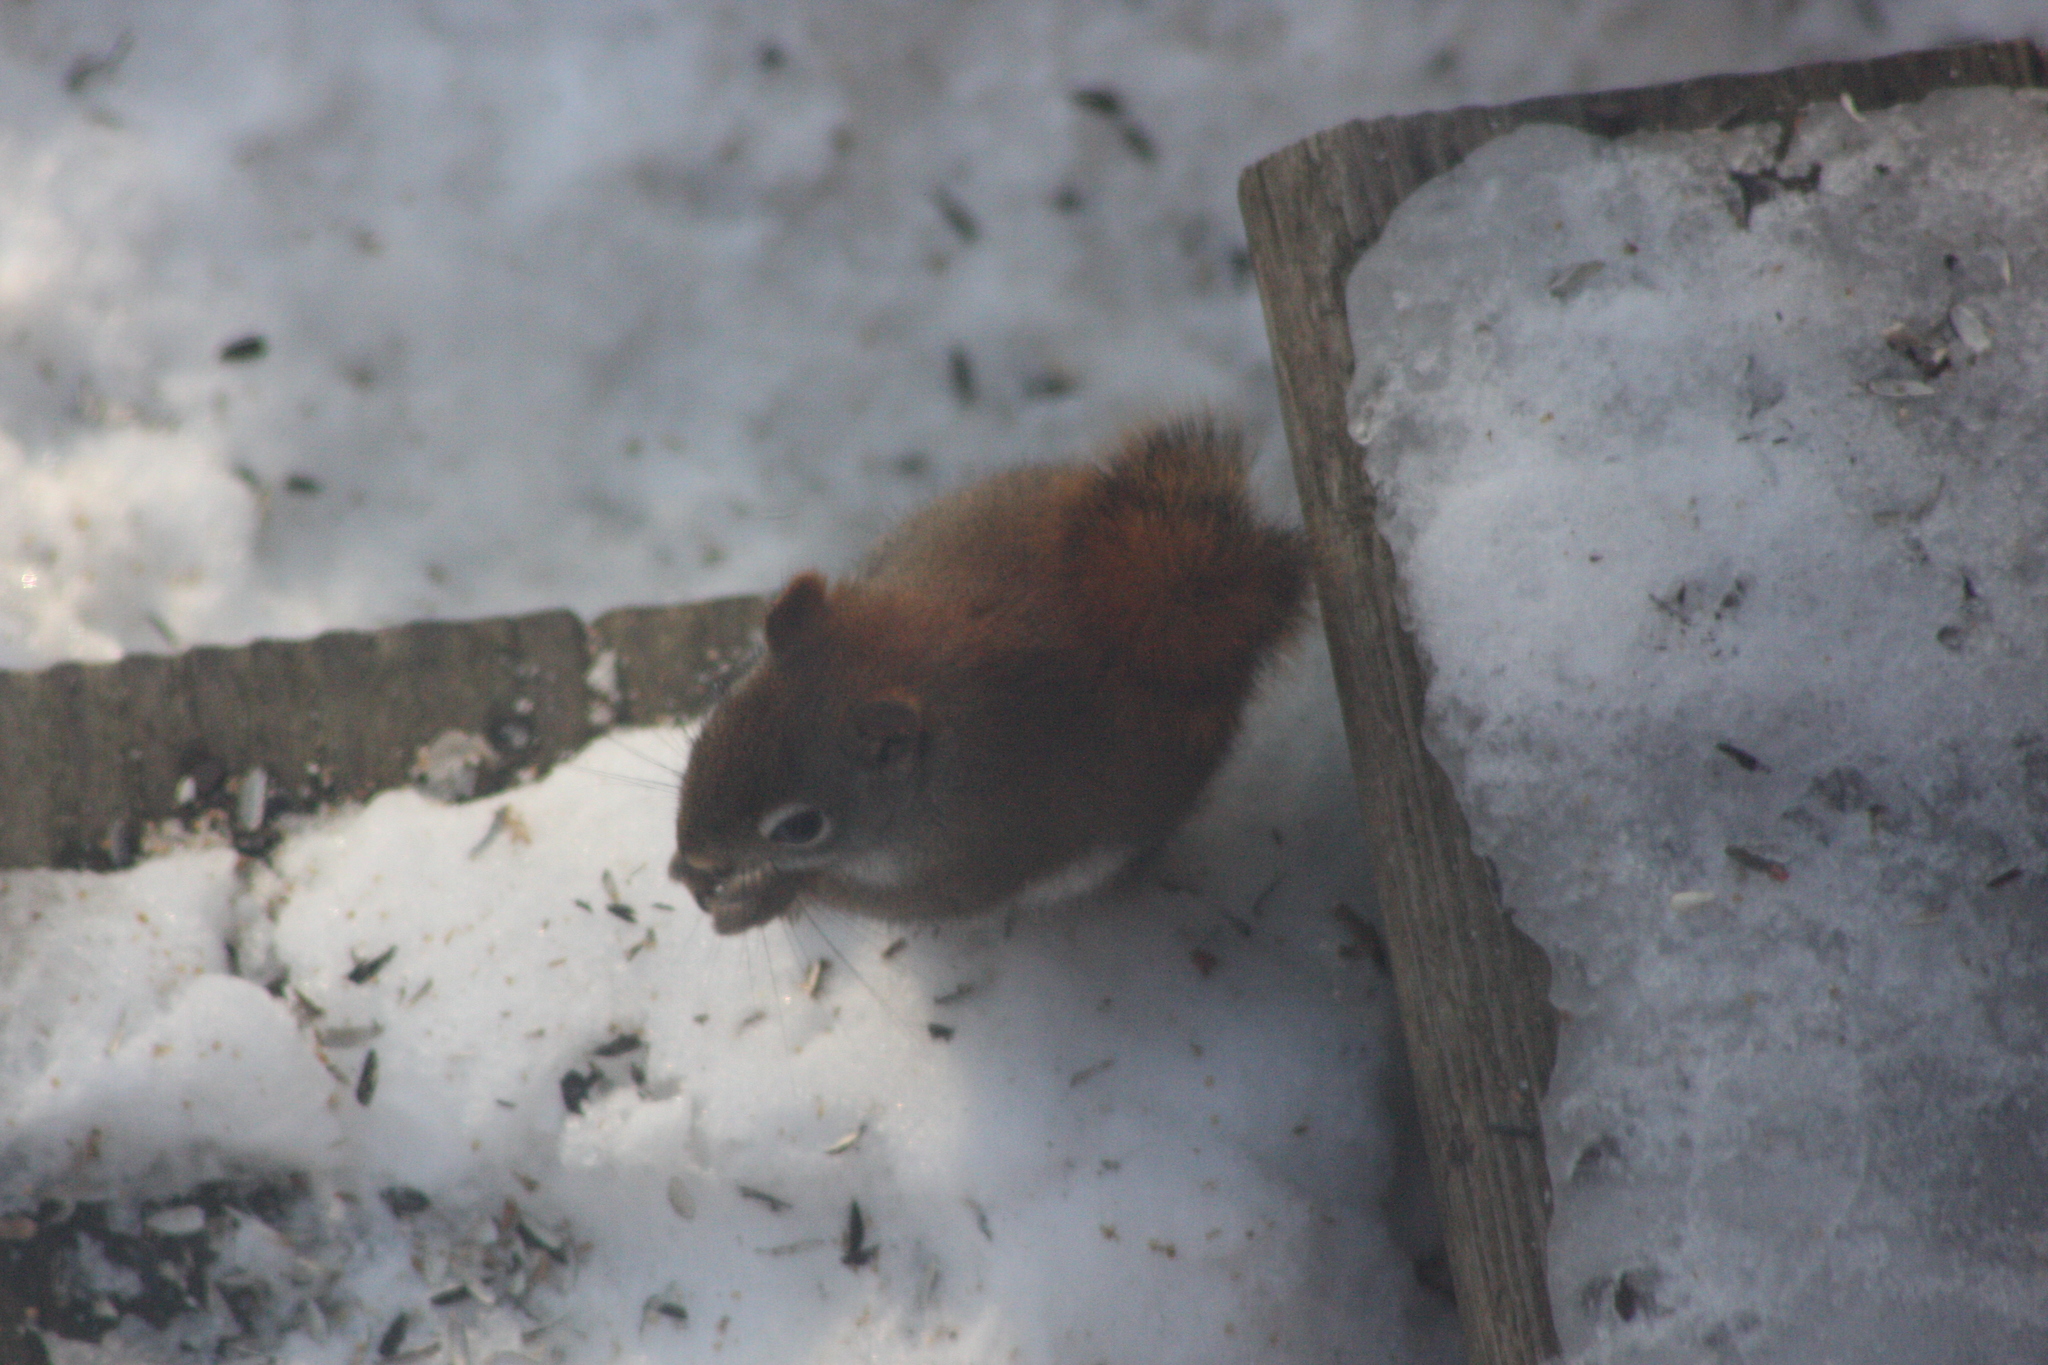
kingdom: Animalia
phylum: Chordata
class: Mammalia
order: Rodentia
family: Sciuridae
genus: Tamiasciurus
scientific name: Tamiasciurus hudsonicus
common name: Red squirrel
